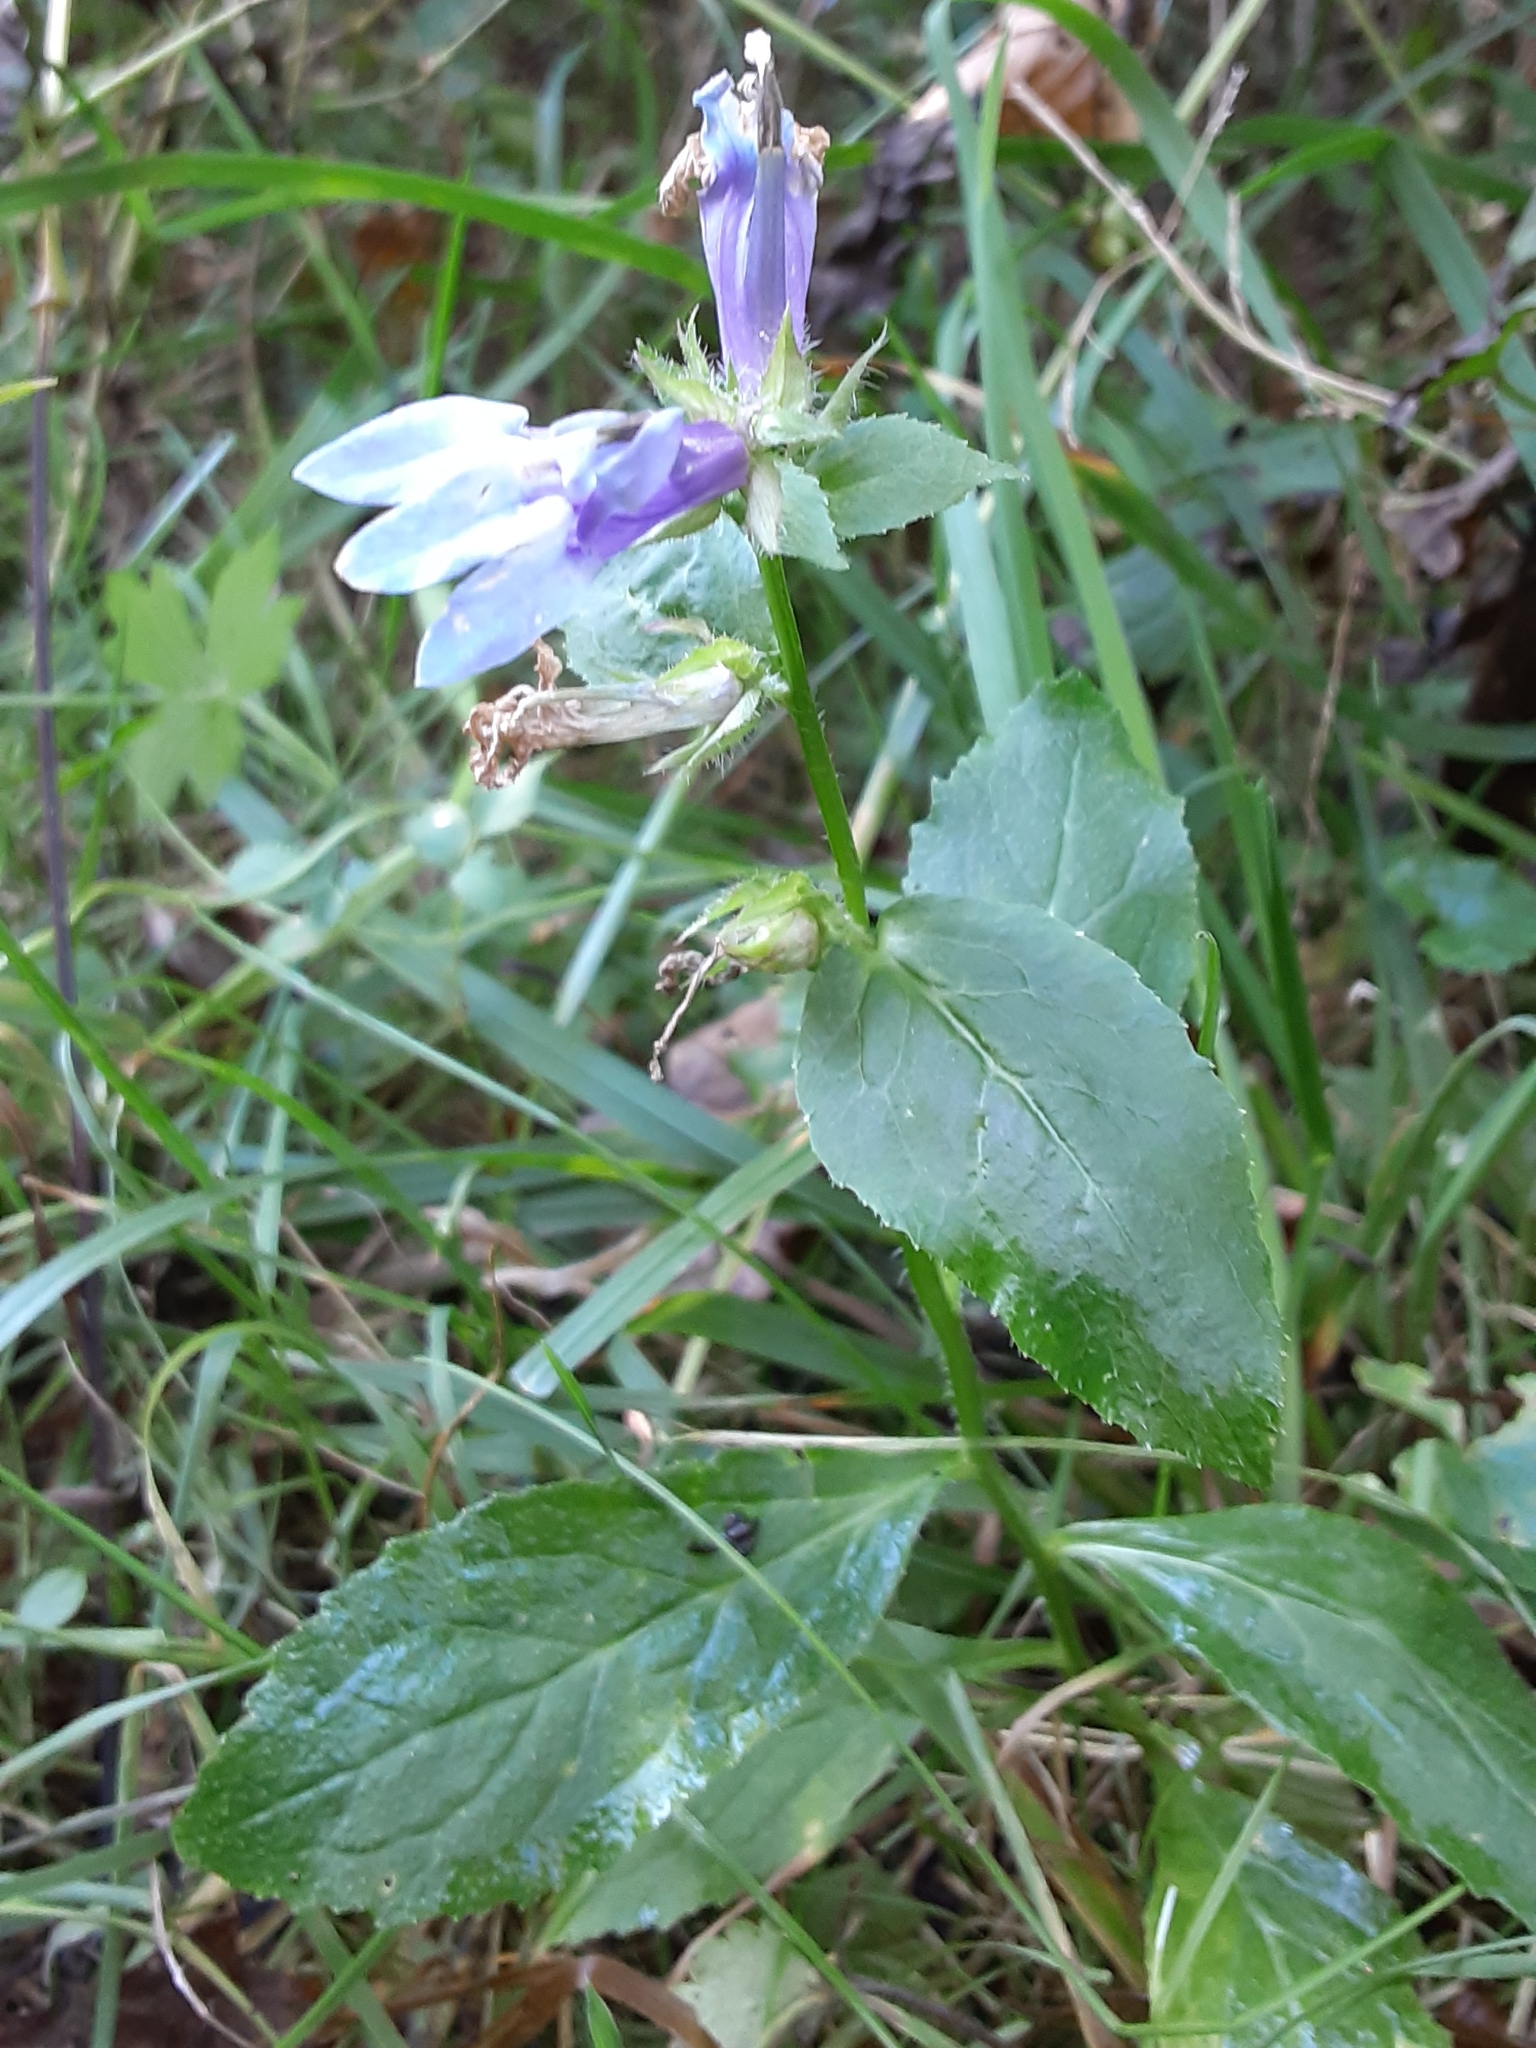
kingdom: Plantae
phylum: Tracheophyta
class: Magnoliopsida
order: Asterales
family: Campanulaceae
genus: Lobelia
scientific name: Lobelia siphilitica
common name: Great lobelia
